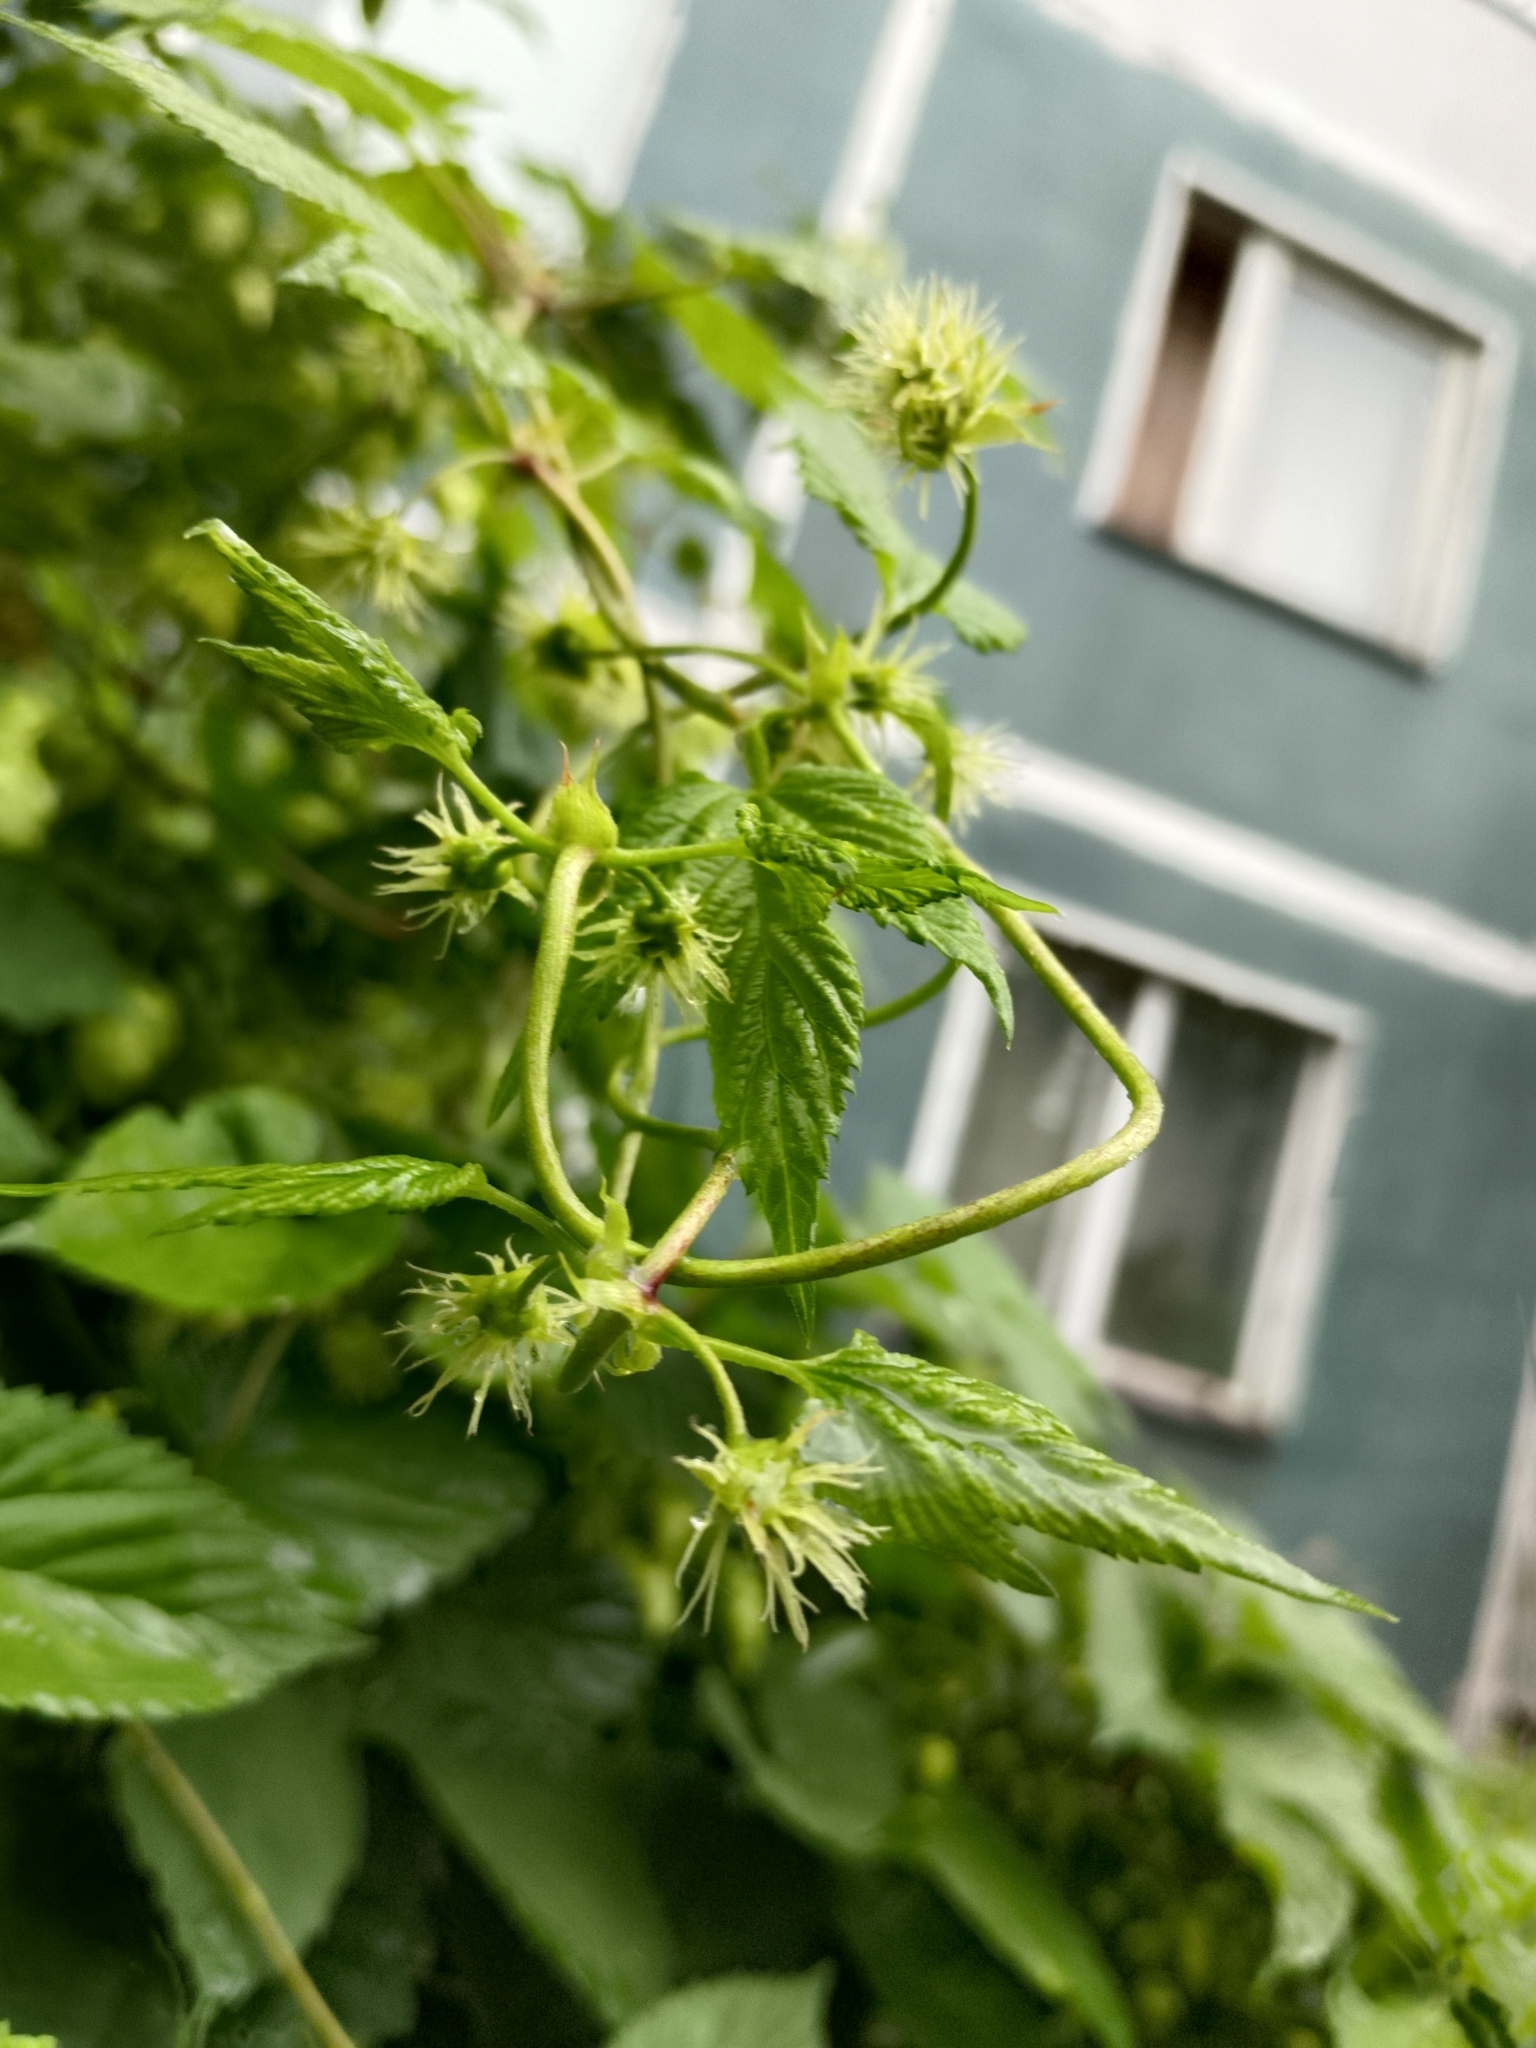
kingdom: Plantae
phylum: Tracheophyta
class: Magnoliopsida
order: Rosales
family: Cannabaceae
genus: Humulus
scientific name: Humulus lupulus
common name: Hop
